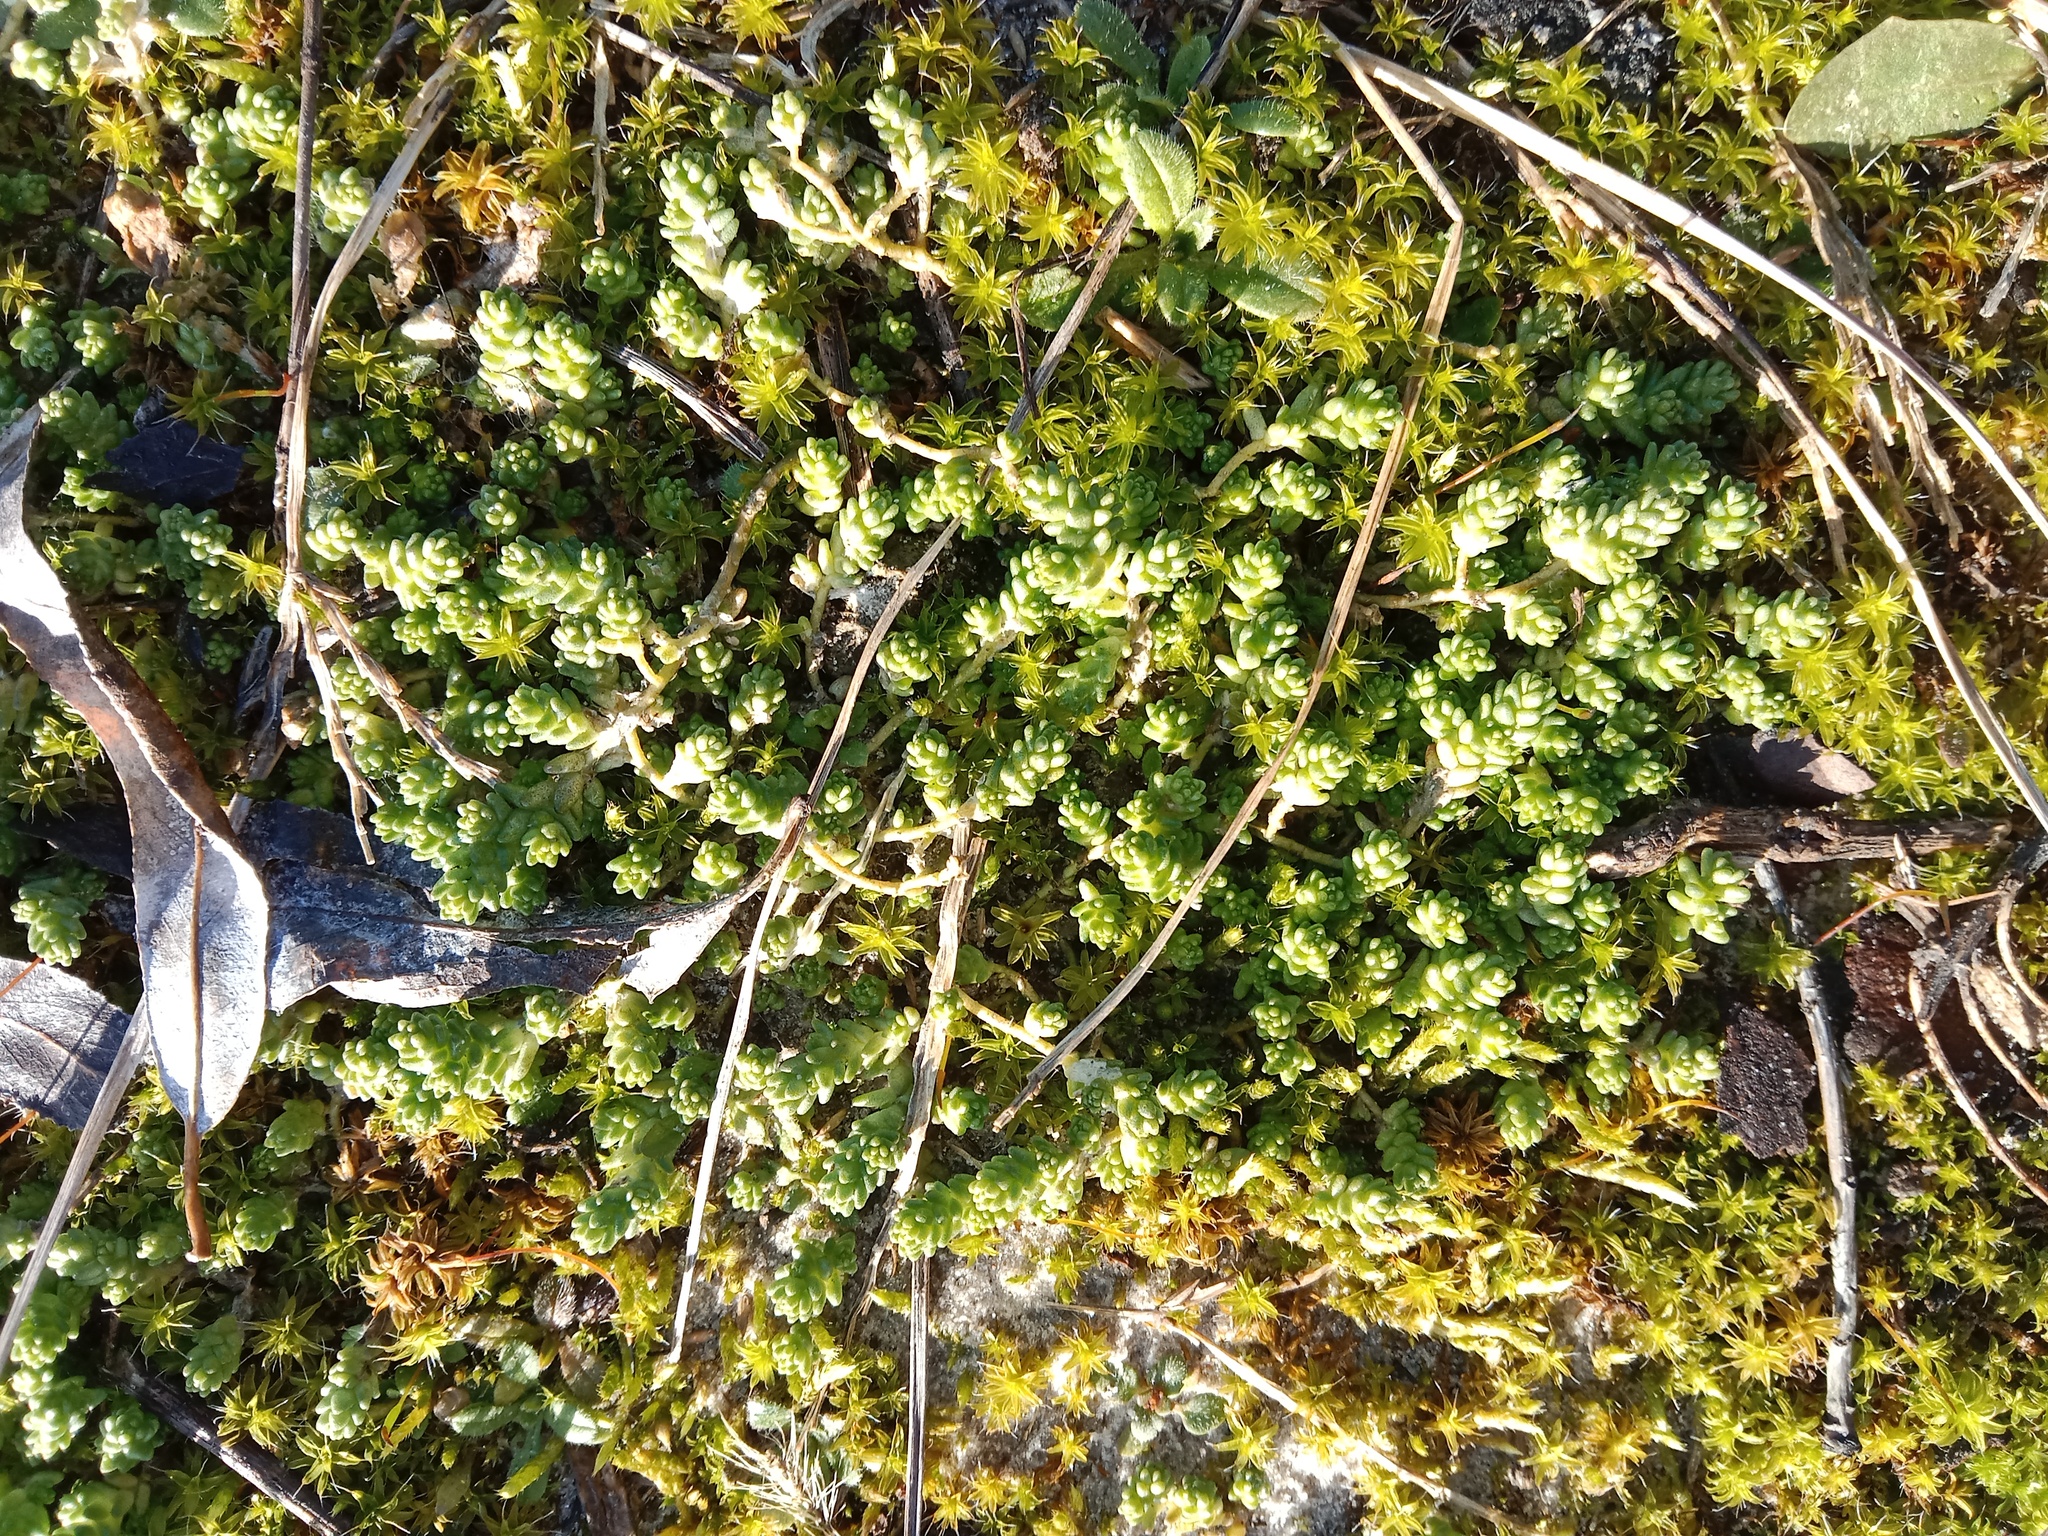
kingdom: Plantae
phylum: Tracheophyta
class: Magnoliopsida
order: Saxifragales
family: Crassulaceae
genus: Sedum
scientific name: Sedum acre
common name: Biting stonecrop
